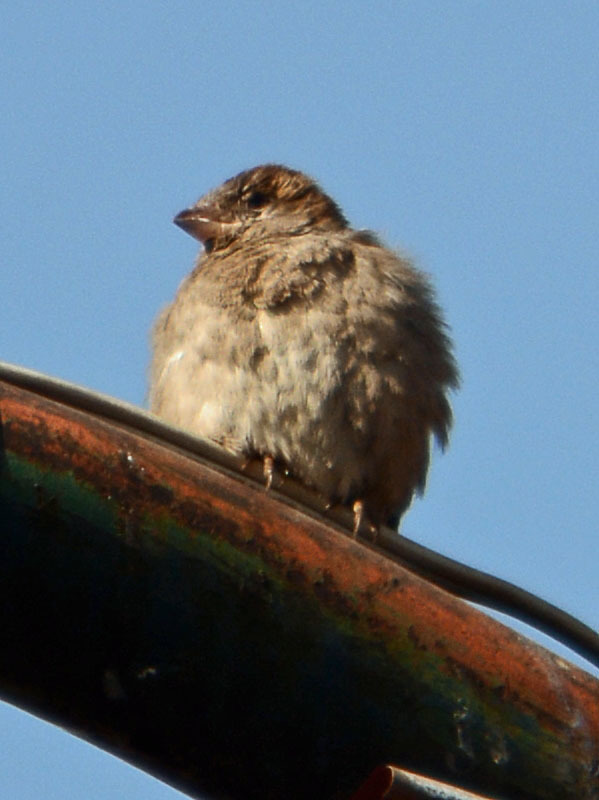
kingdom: Animalia
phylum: Chordata
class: Aves
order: Passeriformes
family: Passeridae
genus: Passer
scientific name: Passer domesticus
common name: House sparrow
